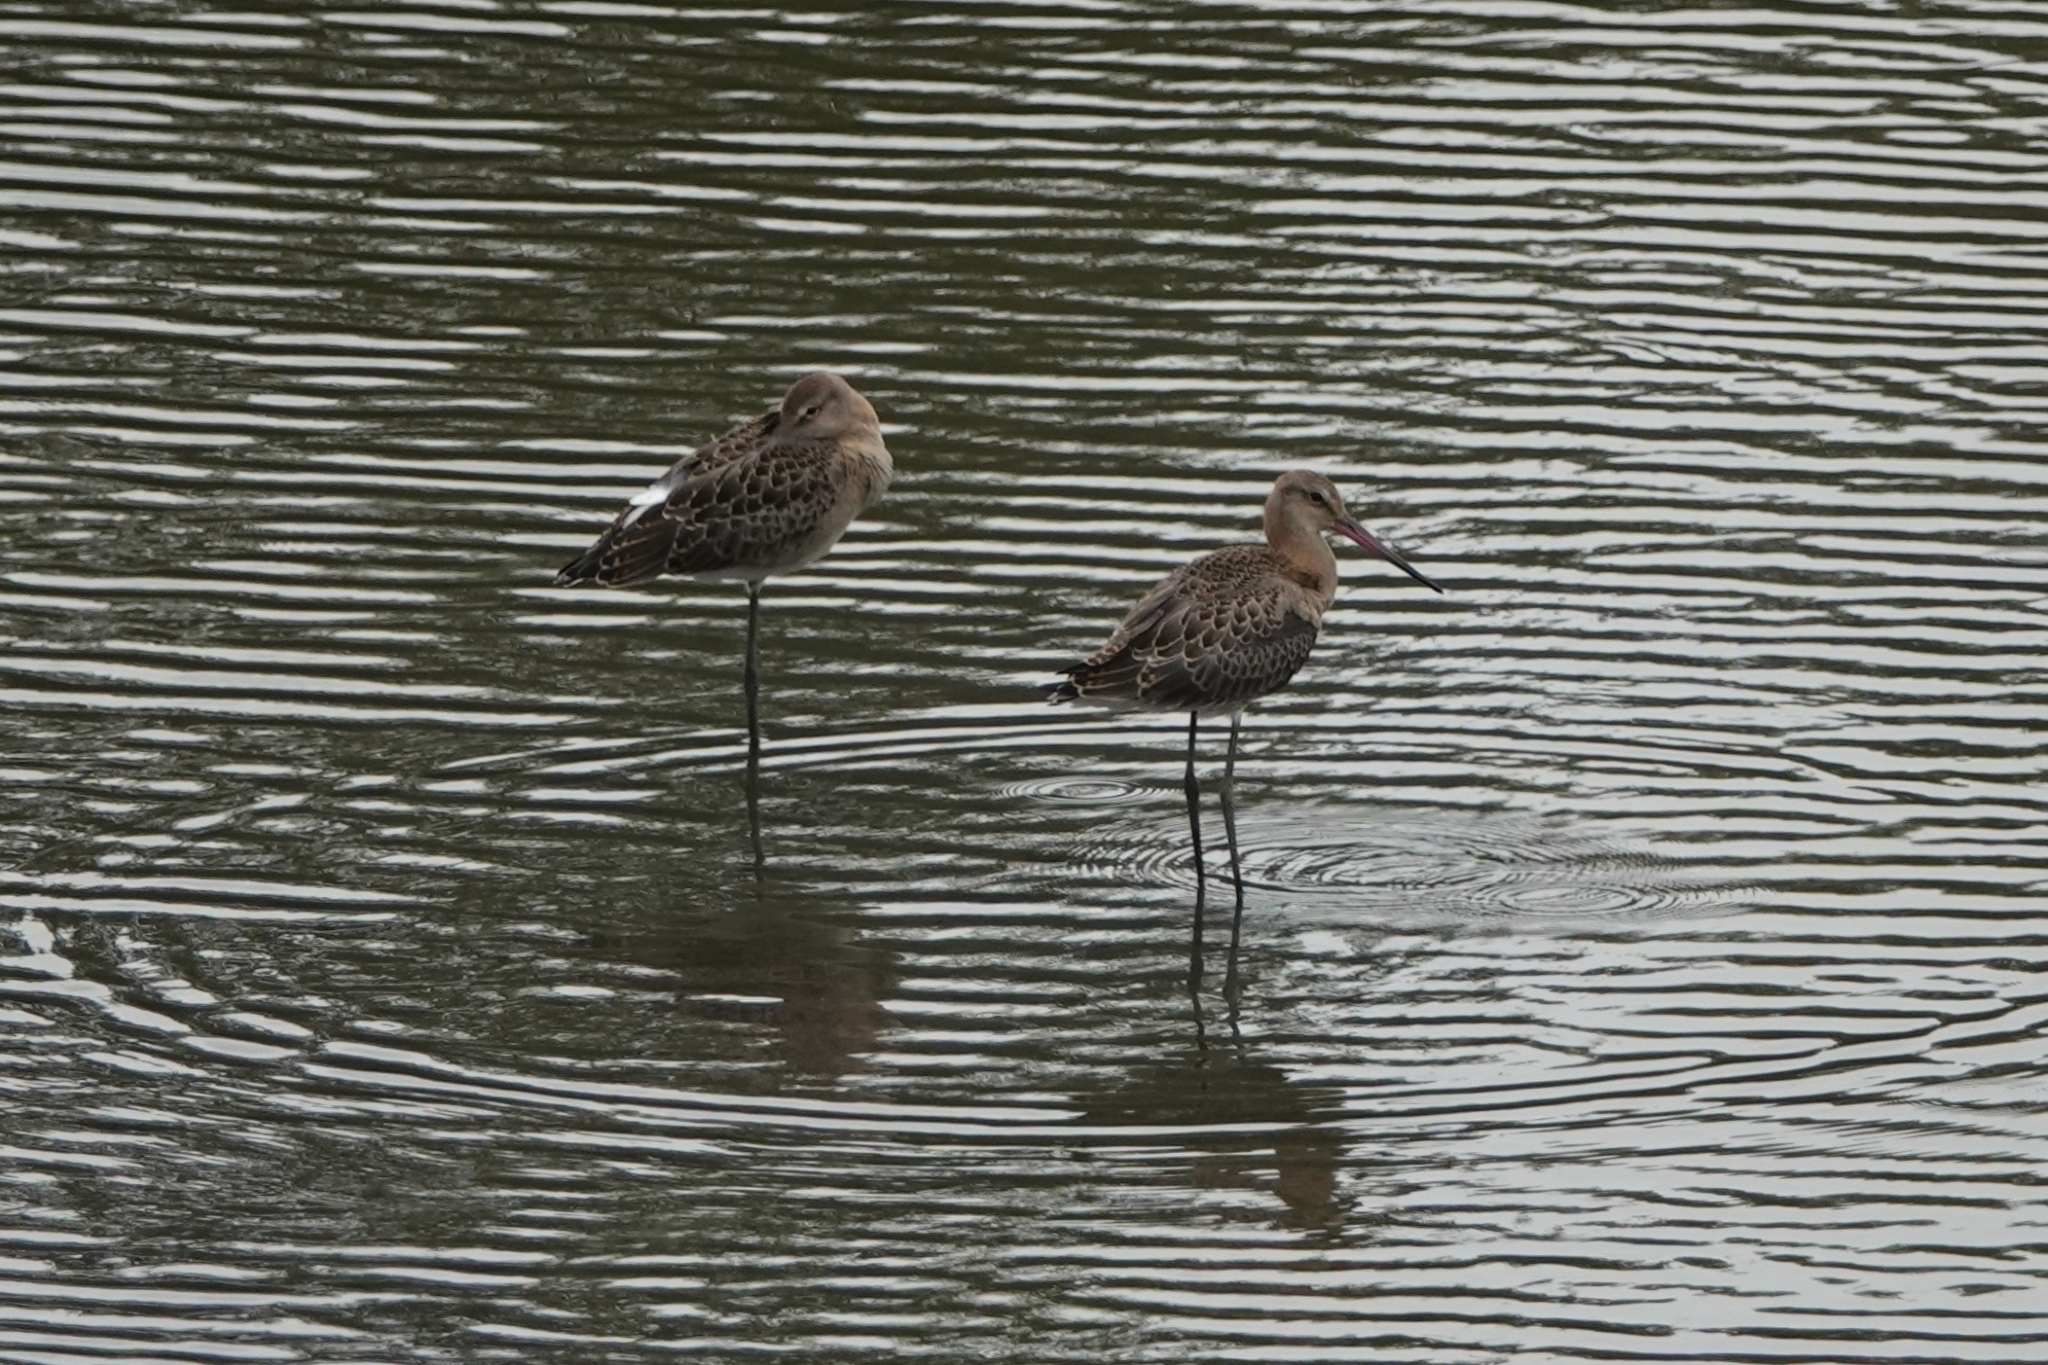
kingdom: Animalia
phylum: Chordata
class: Aves
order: Charadriiformes
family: Scolopacidae
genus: Limosa
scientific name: Limosa limosa
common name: Black-tailed godwit
